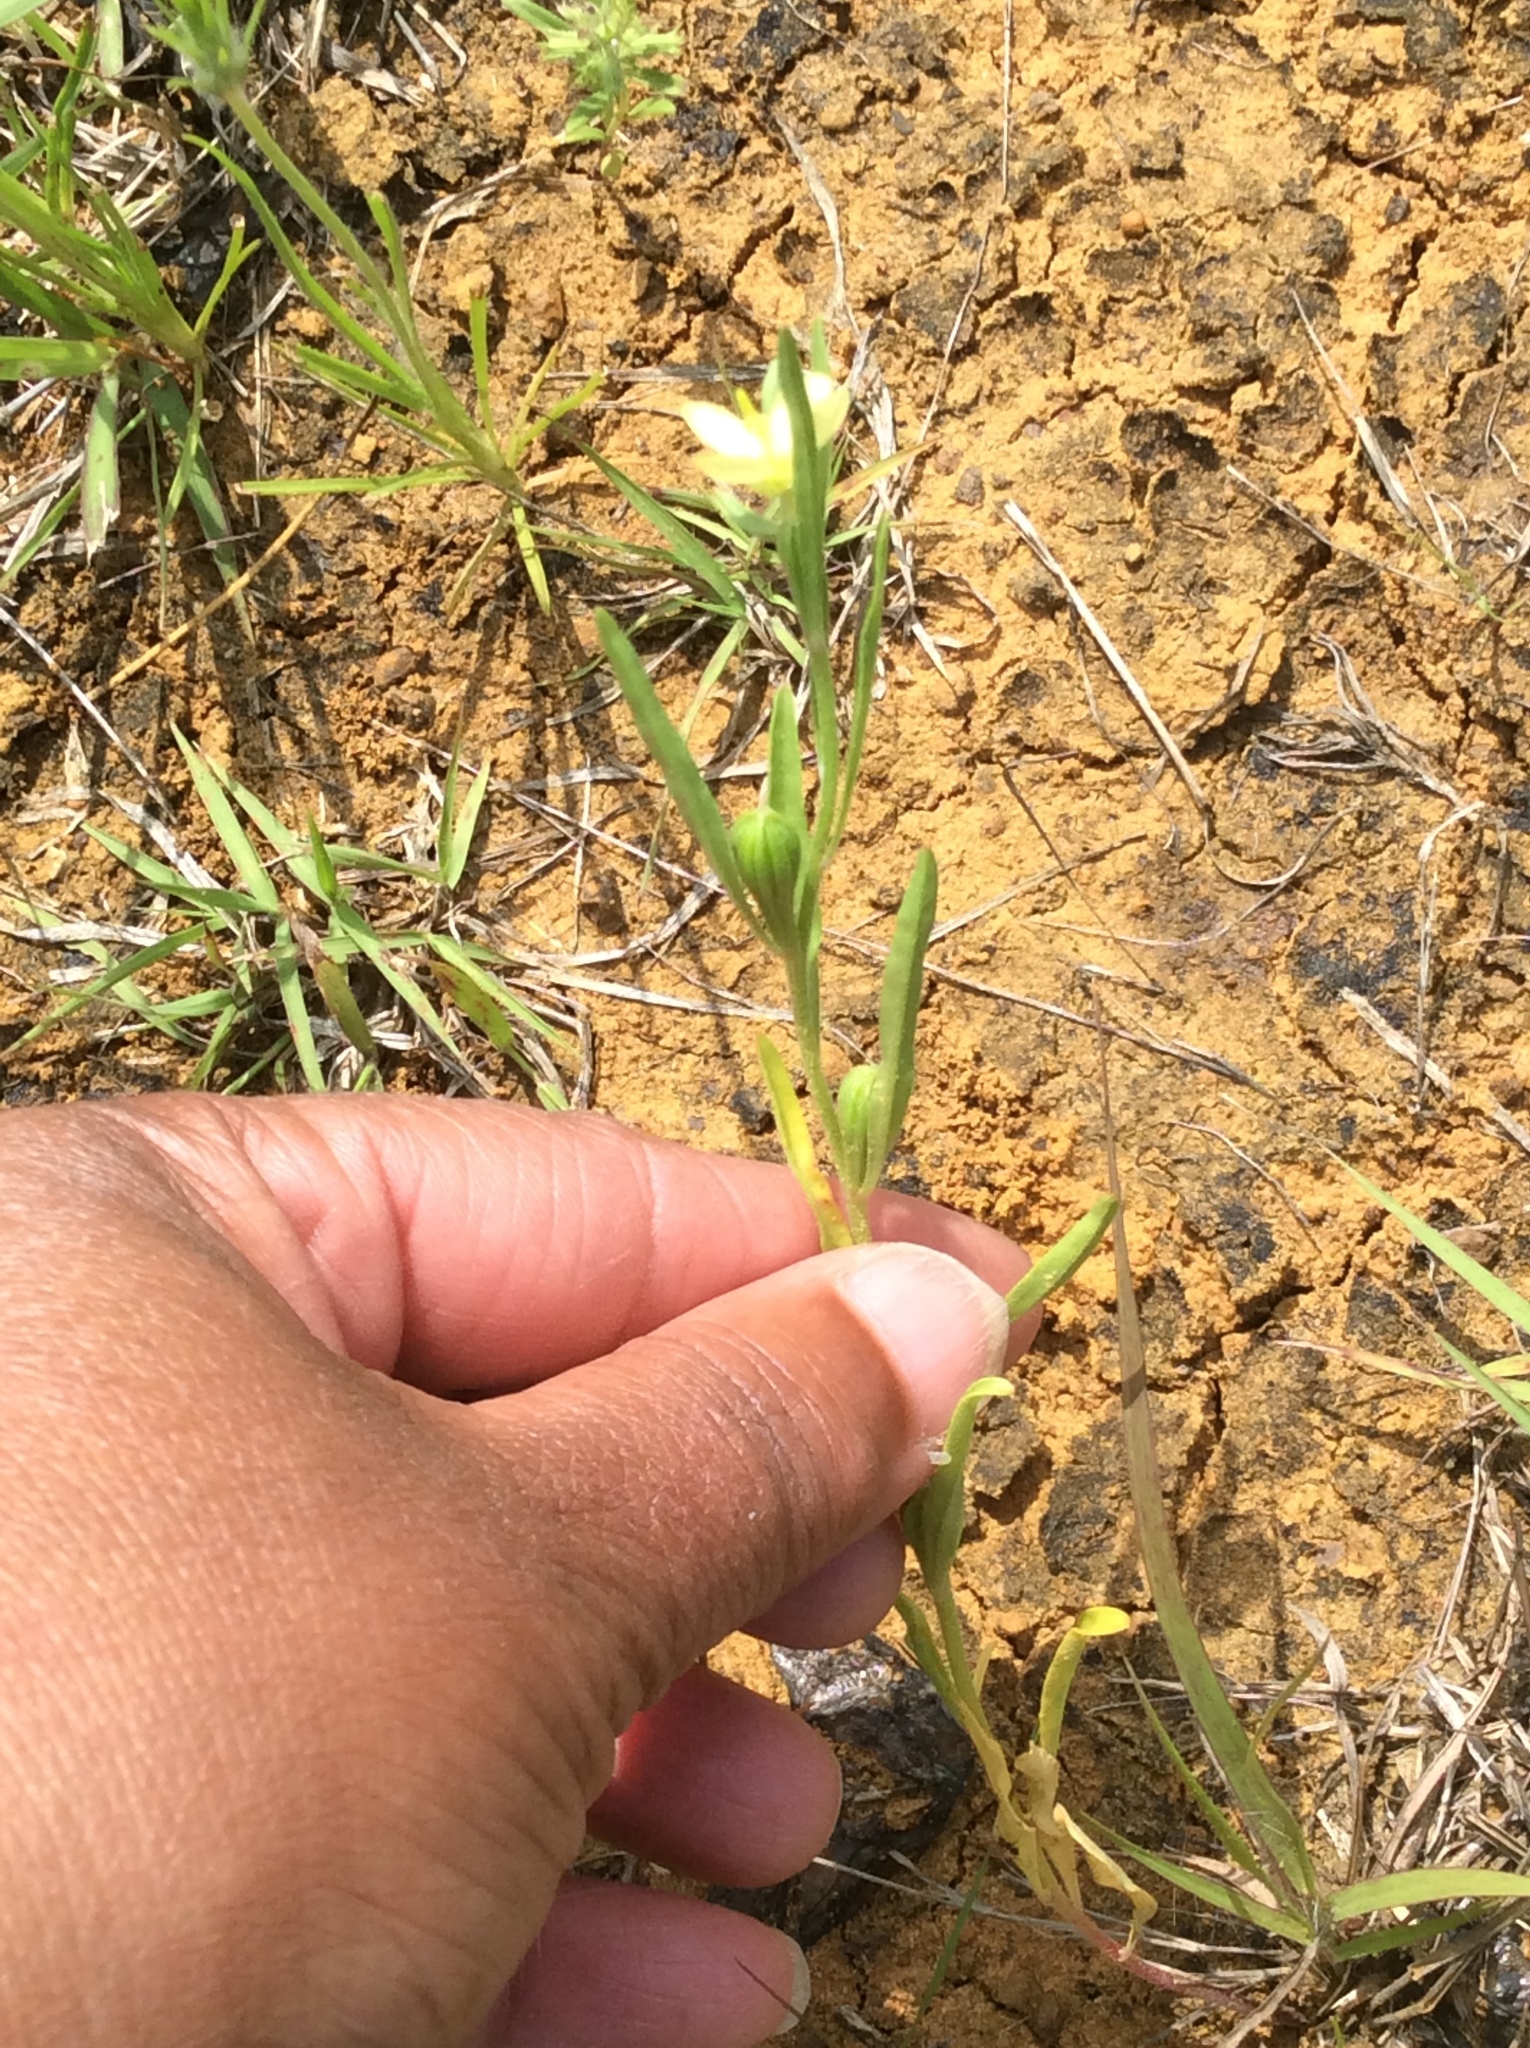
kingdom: Plantae
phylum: Tracheophyta
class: Magnoliopsida
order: Myrtales
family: Onagraceae
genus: Oenothera
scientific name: Oenothera spachiana
